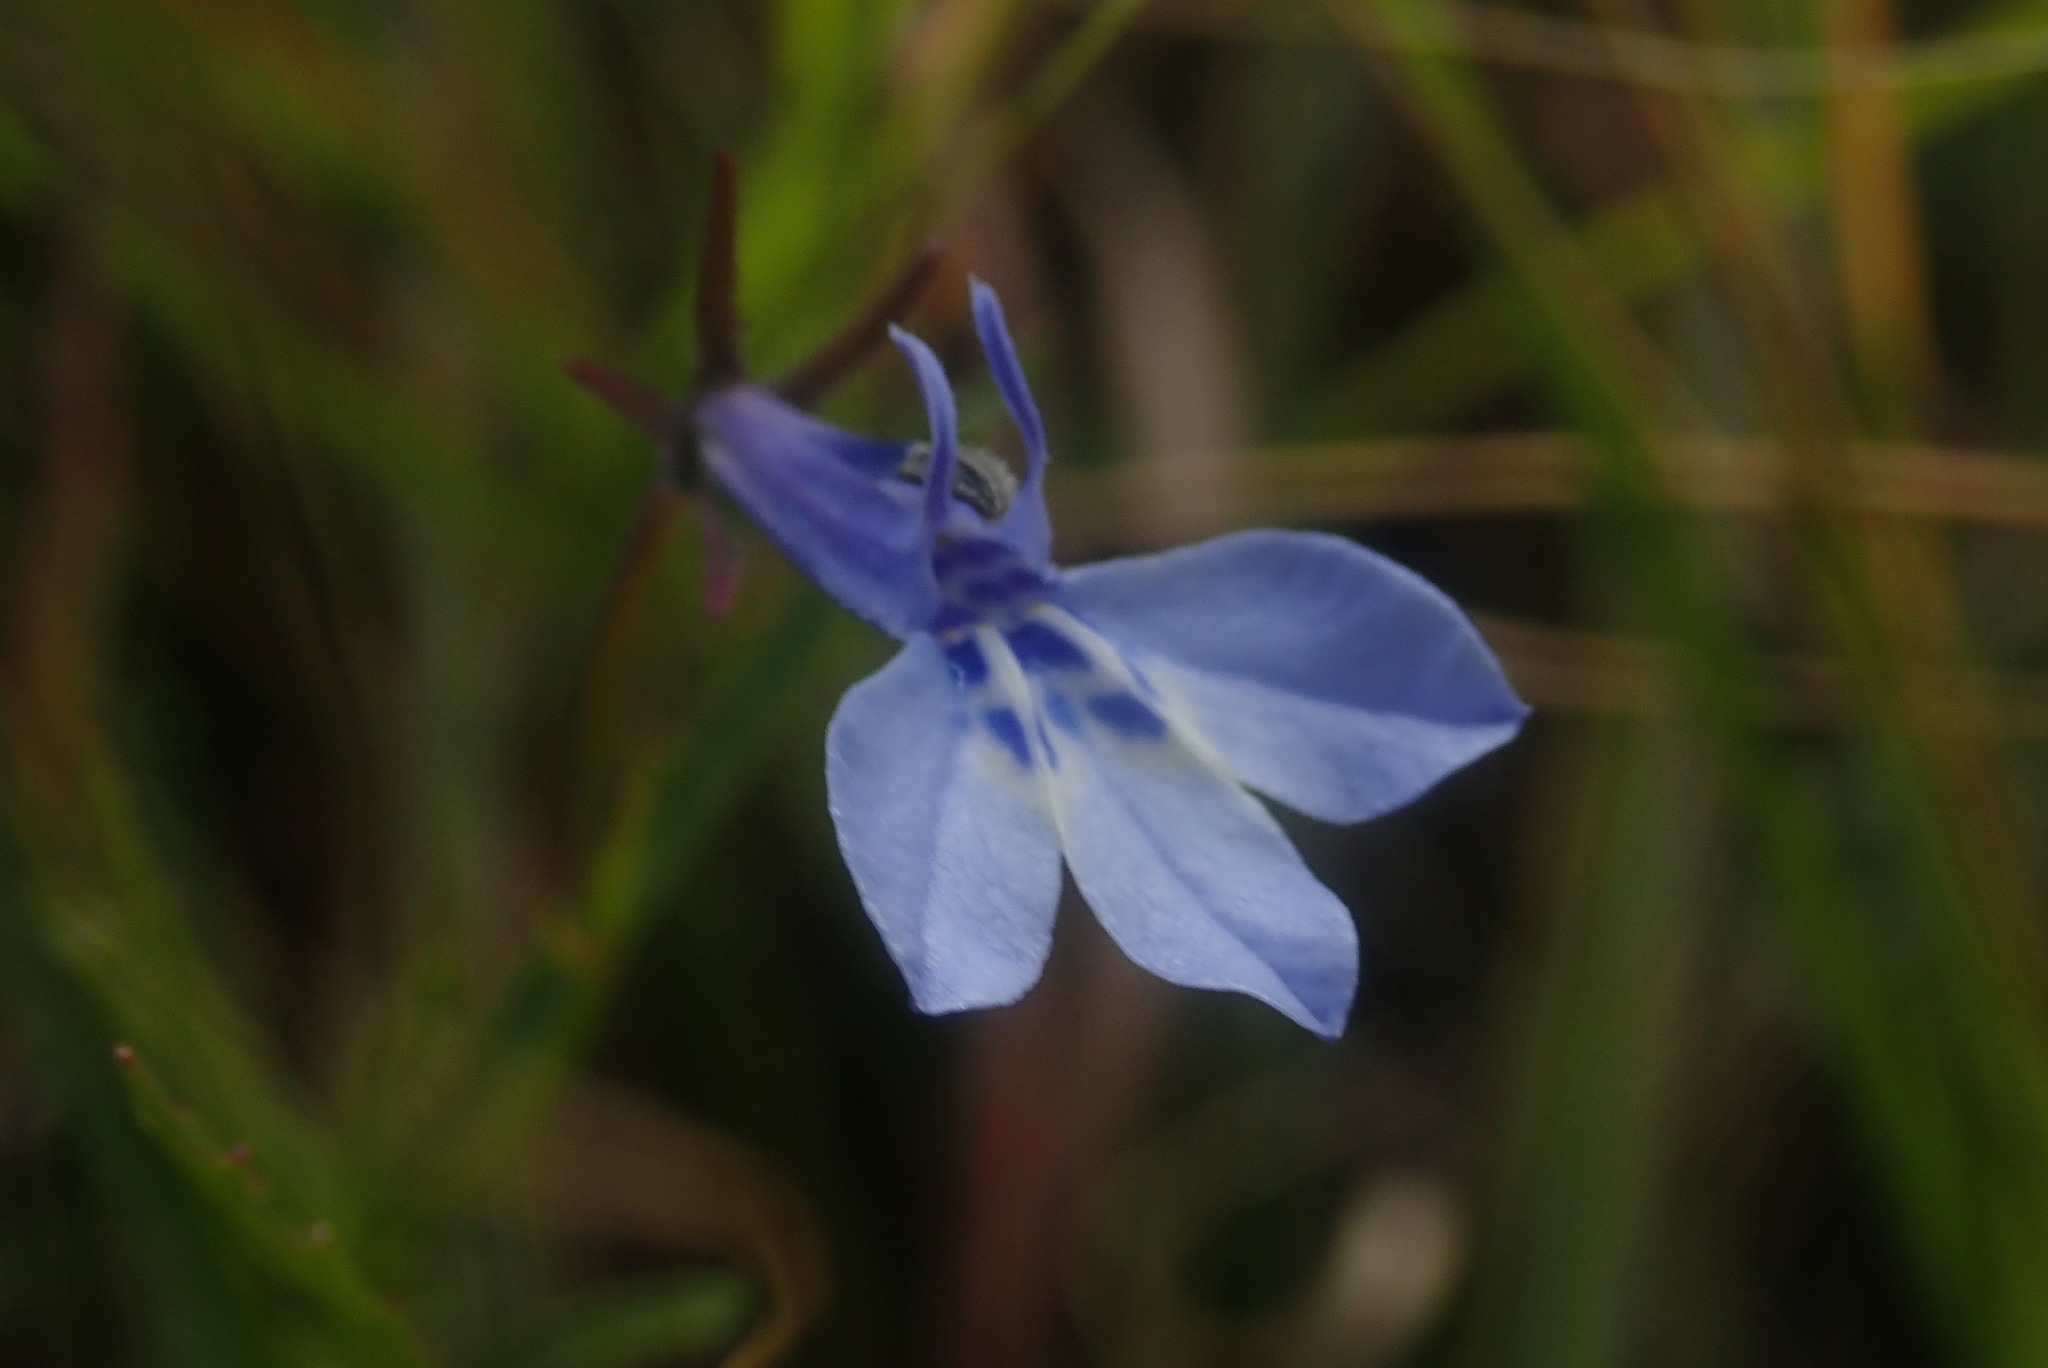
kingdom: Plantae
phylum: Tracheophyta
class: Magnoliopsida
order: Asterales
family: Campanulaceae
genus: Lobelia
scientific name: Lobelia flaccida
